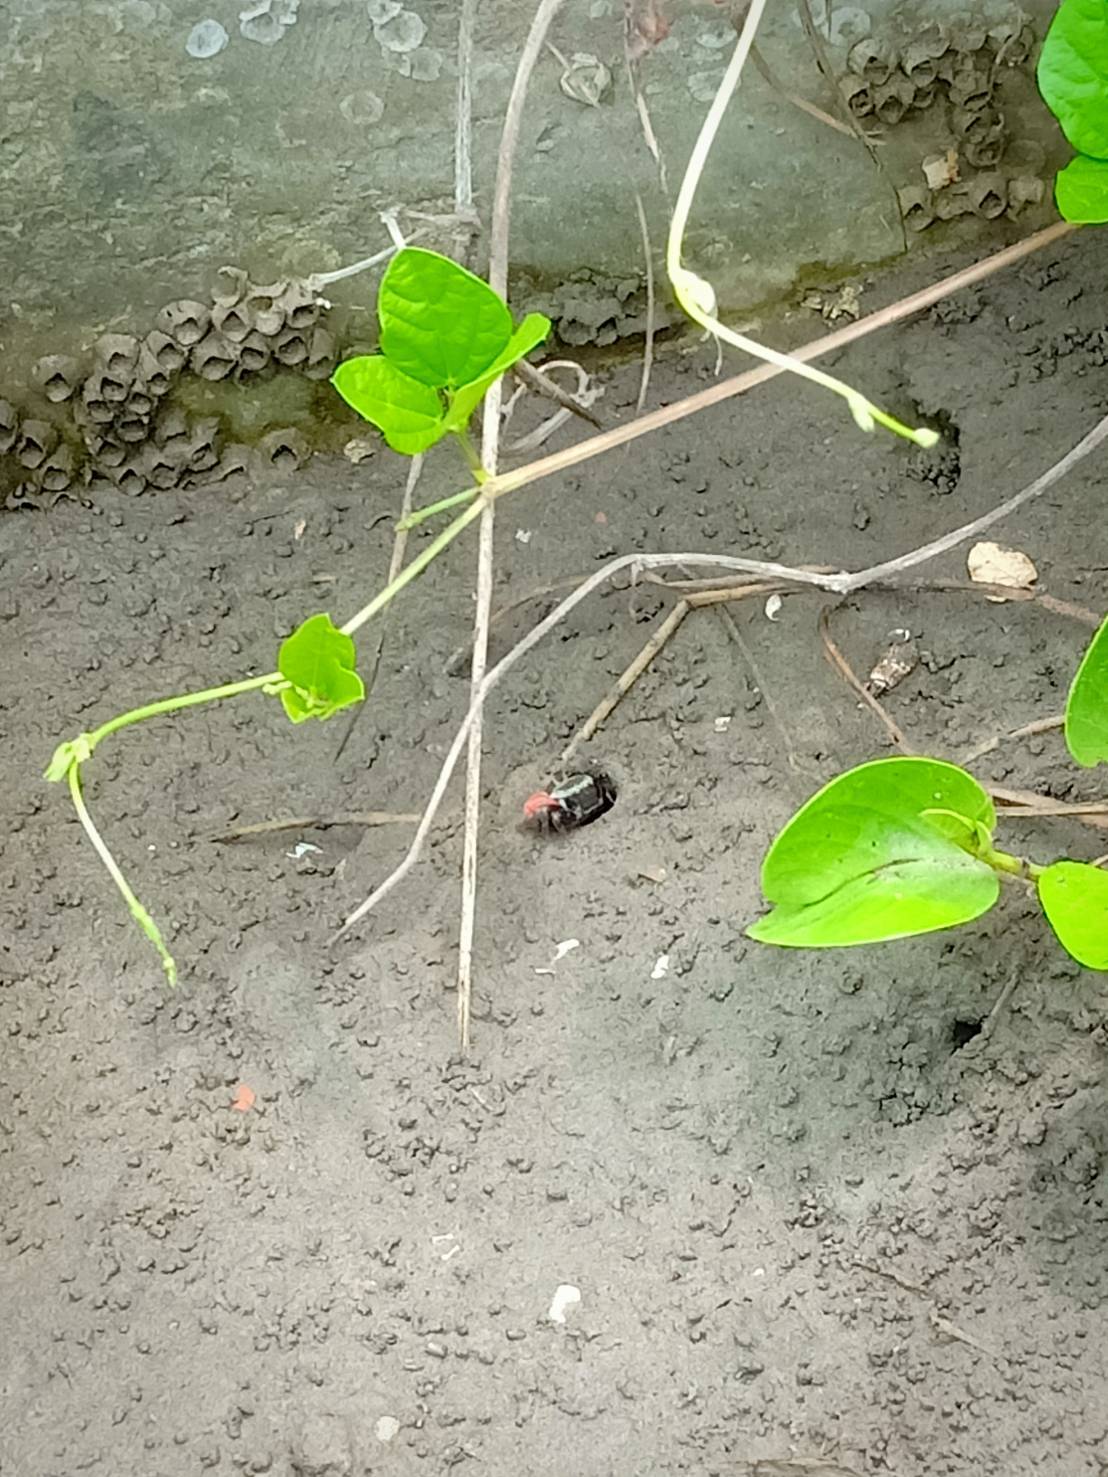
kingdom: Animalia
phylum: Arthropoda
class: Malacostraca
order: Decapoda
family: Ocypodidae
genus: Tubuca
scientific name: Tubuca arcuata
